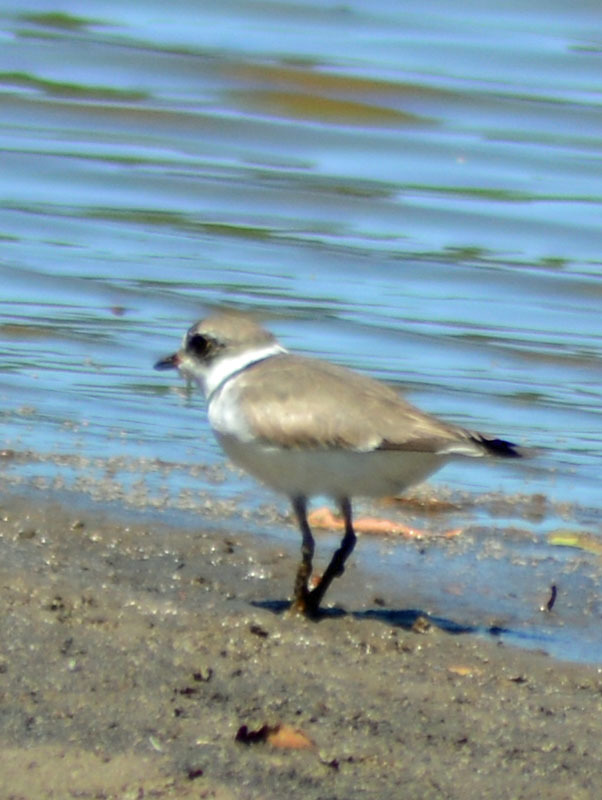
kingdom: Animalia
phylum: Chordata
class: Aves
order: Charadriiformes
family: Charadriidae
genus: Charadrius
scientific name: Charadrius semipalmatus
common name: Semipalmated plover
